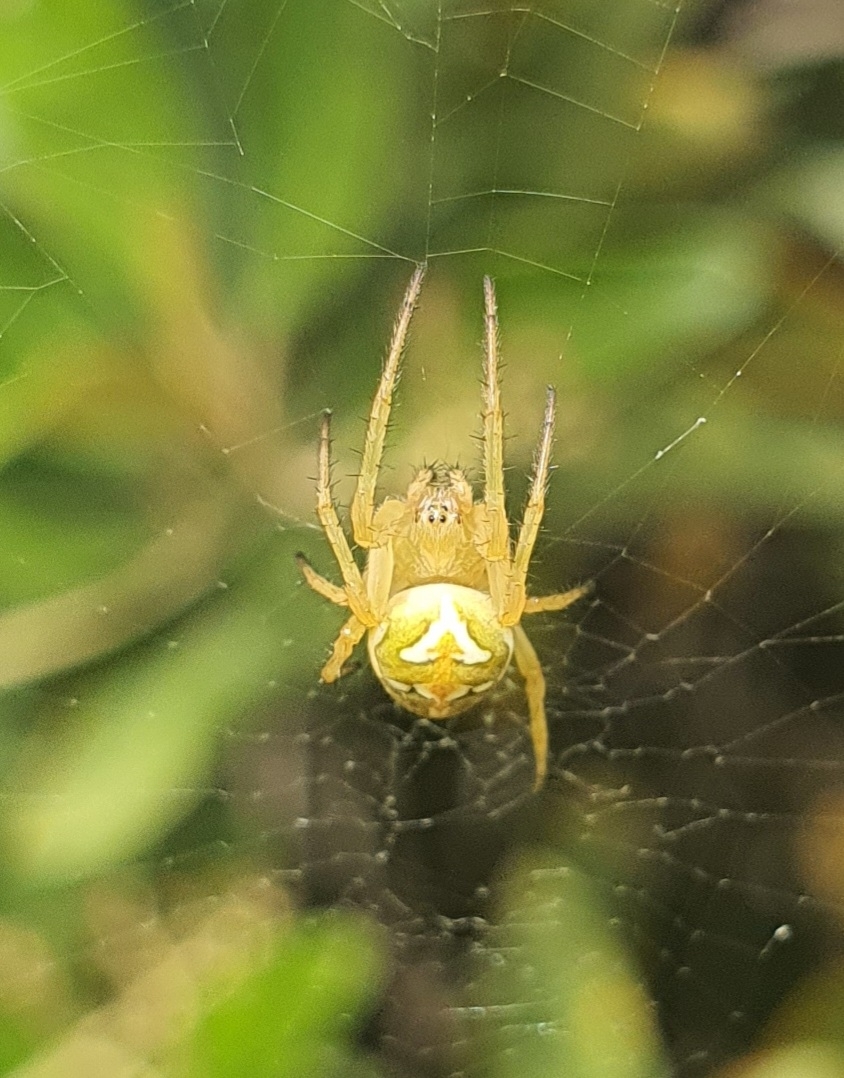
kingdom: Animalia
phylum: Arthropoda
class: Arachnida
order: Araneae
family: Araneidae
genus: Colaranea
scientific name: Colaranea verutum
